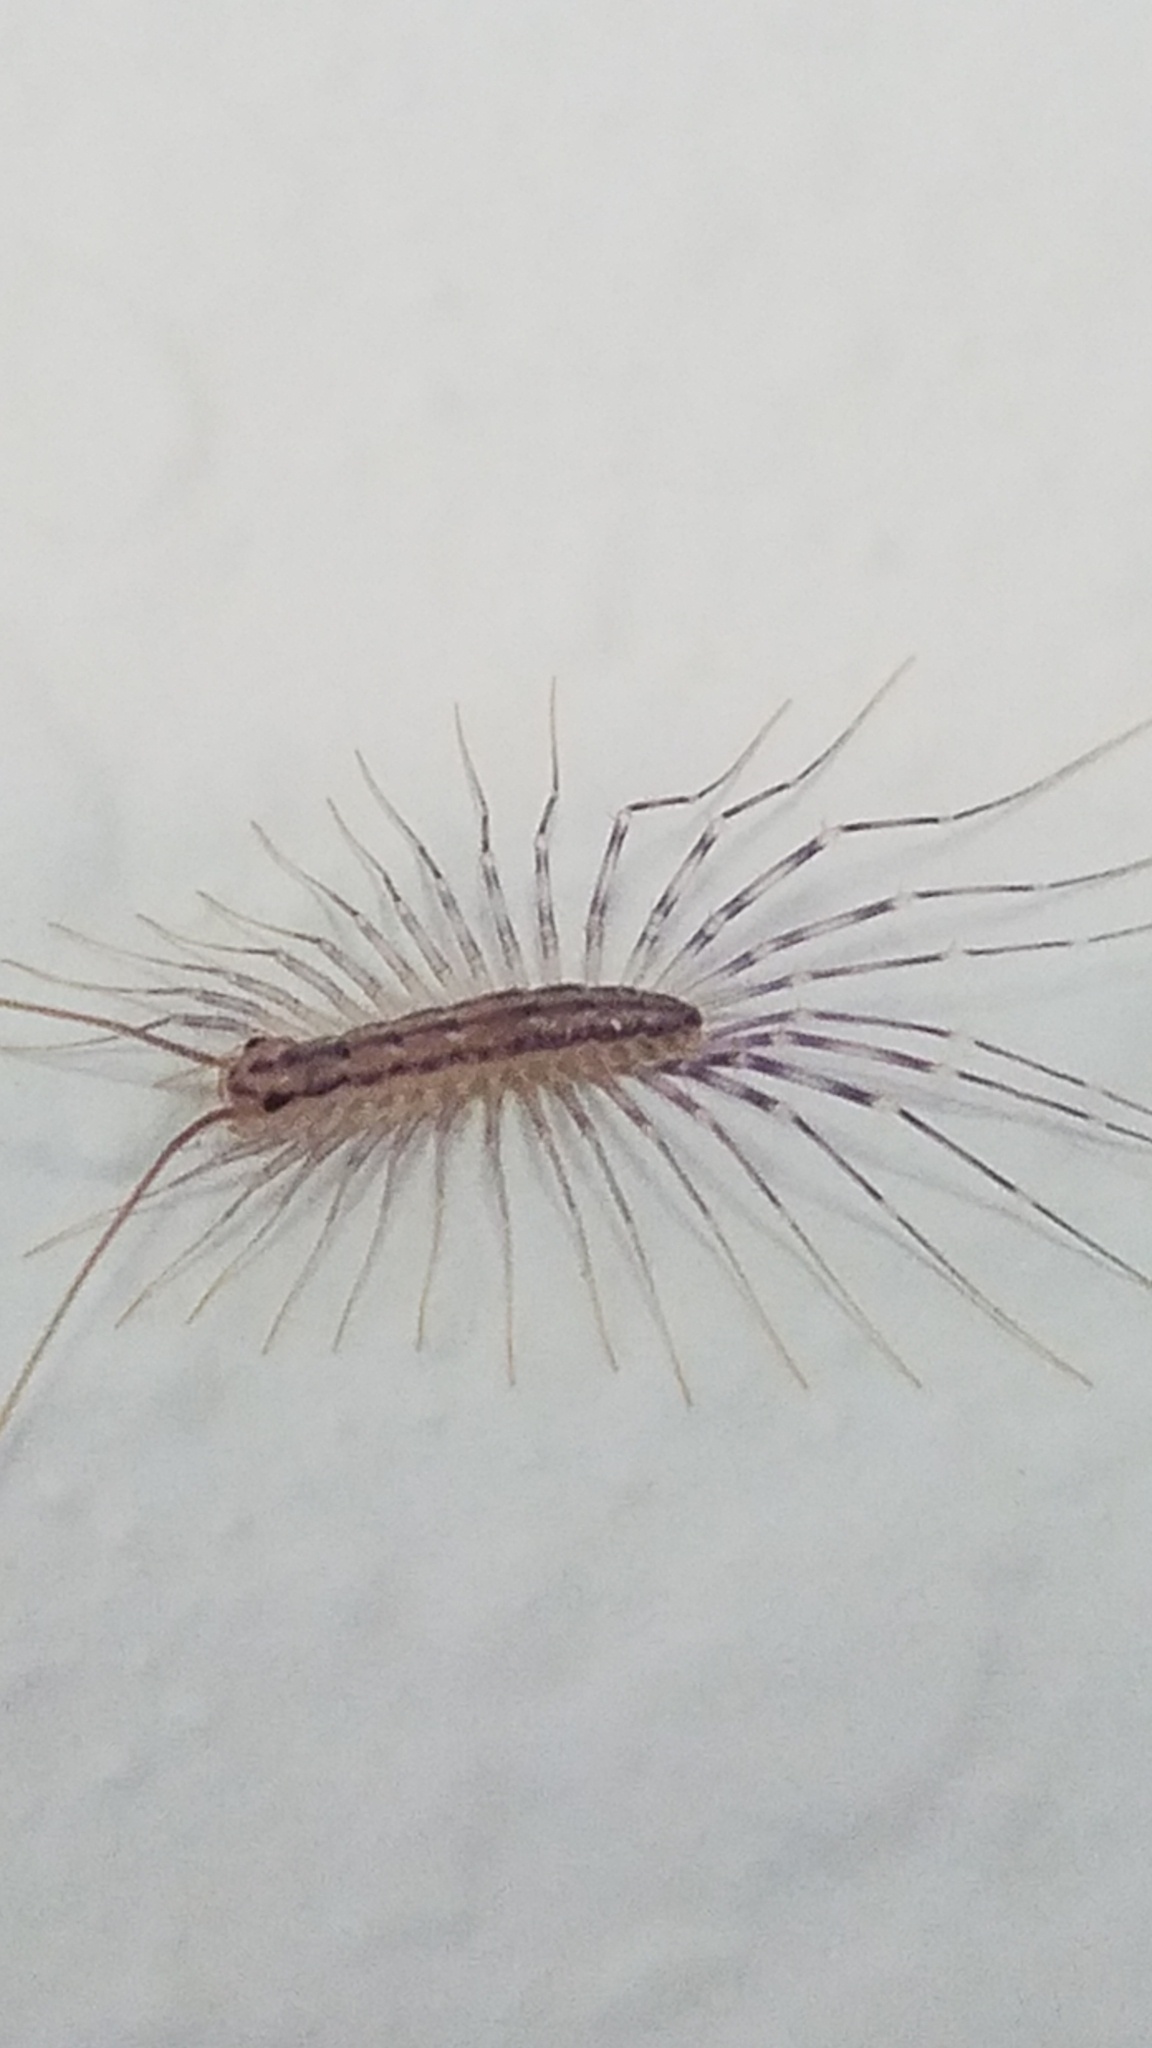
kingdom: Animalia
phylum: Arthropoda
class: Chilopoda
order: Scutigeromorpha
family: Scutigeridae
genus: Scutigera
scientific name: Scutigera coleoptrata
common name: House centipede
